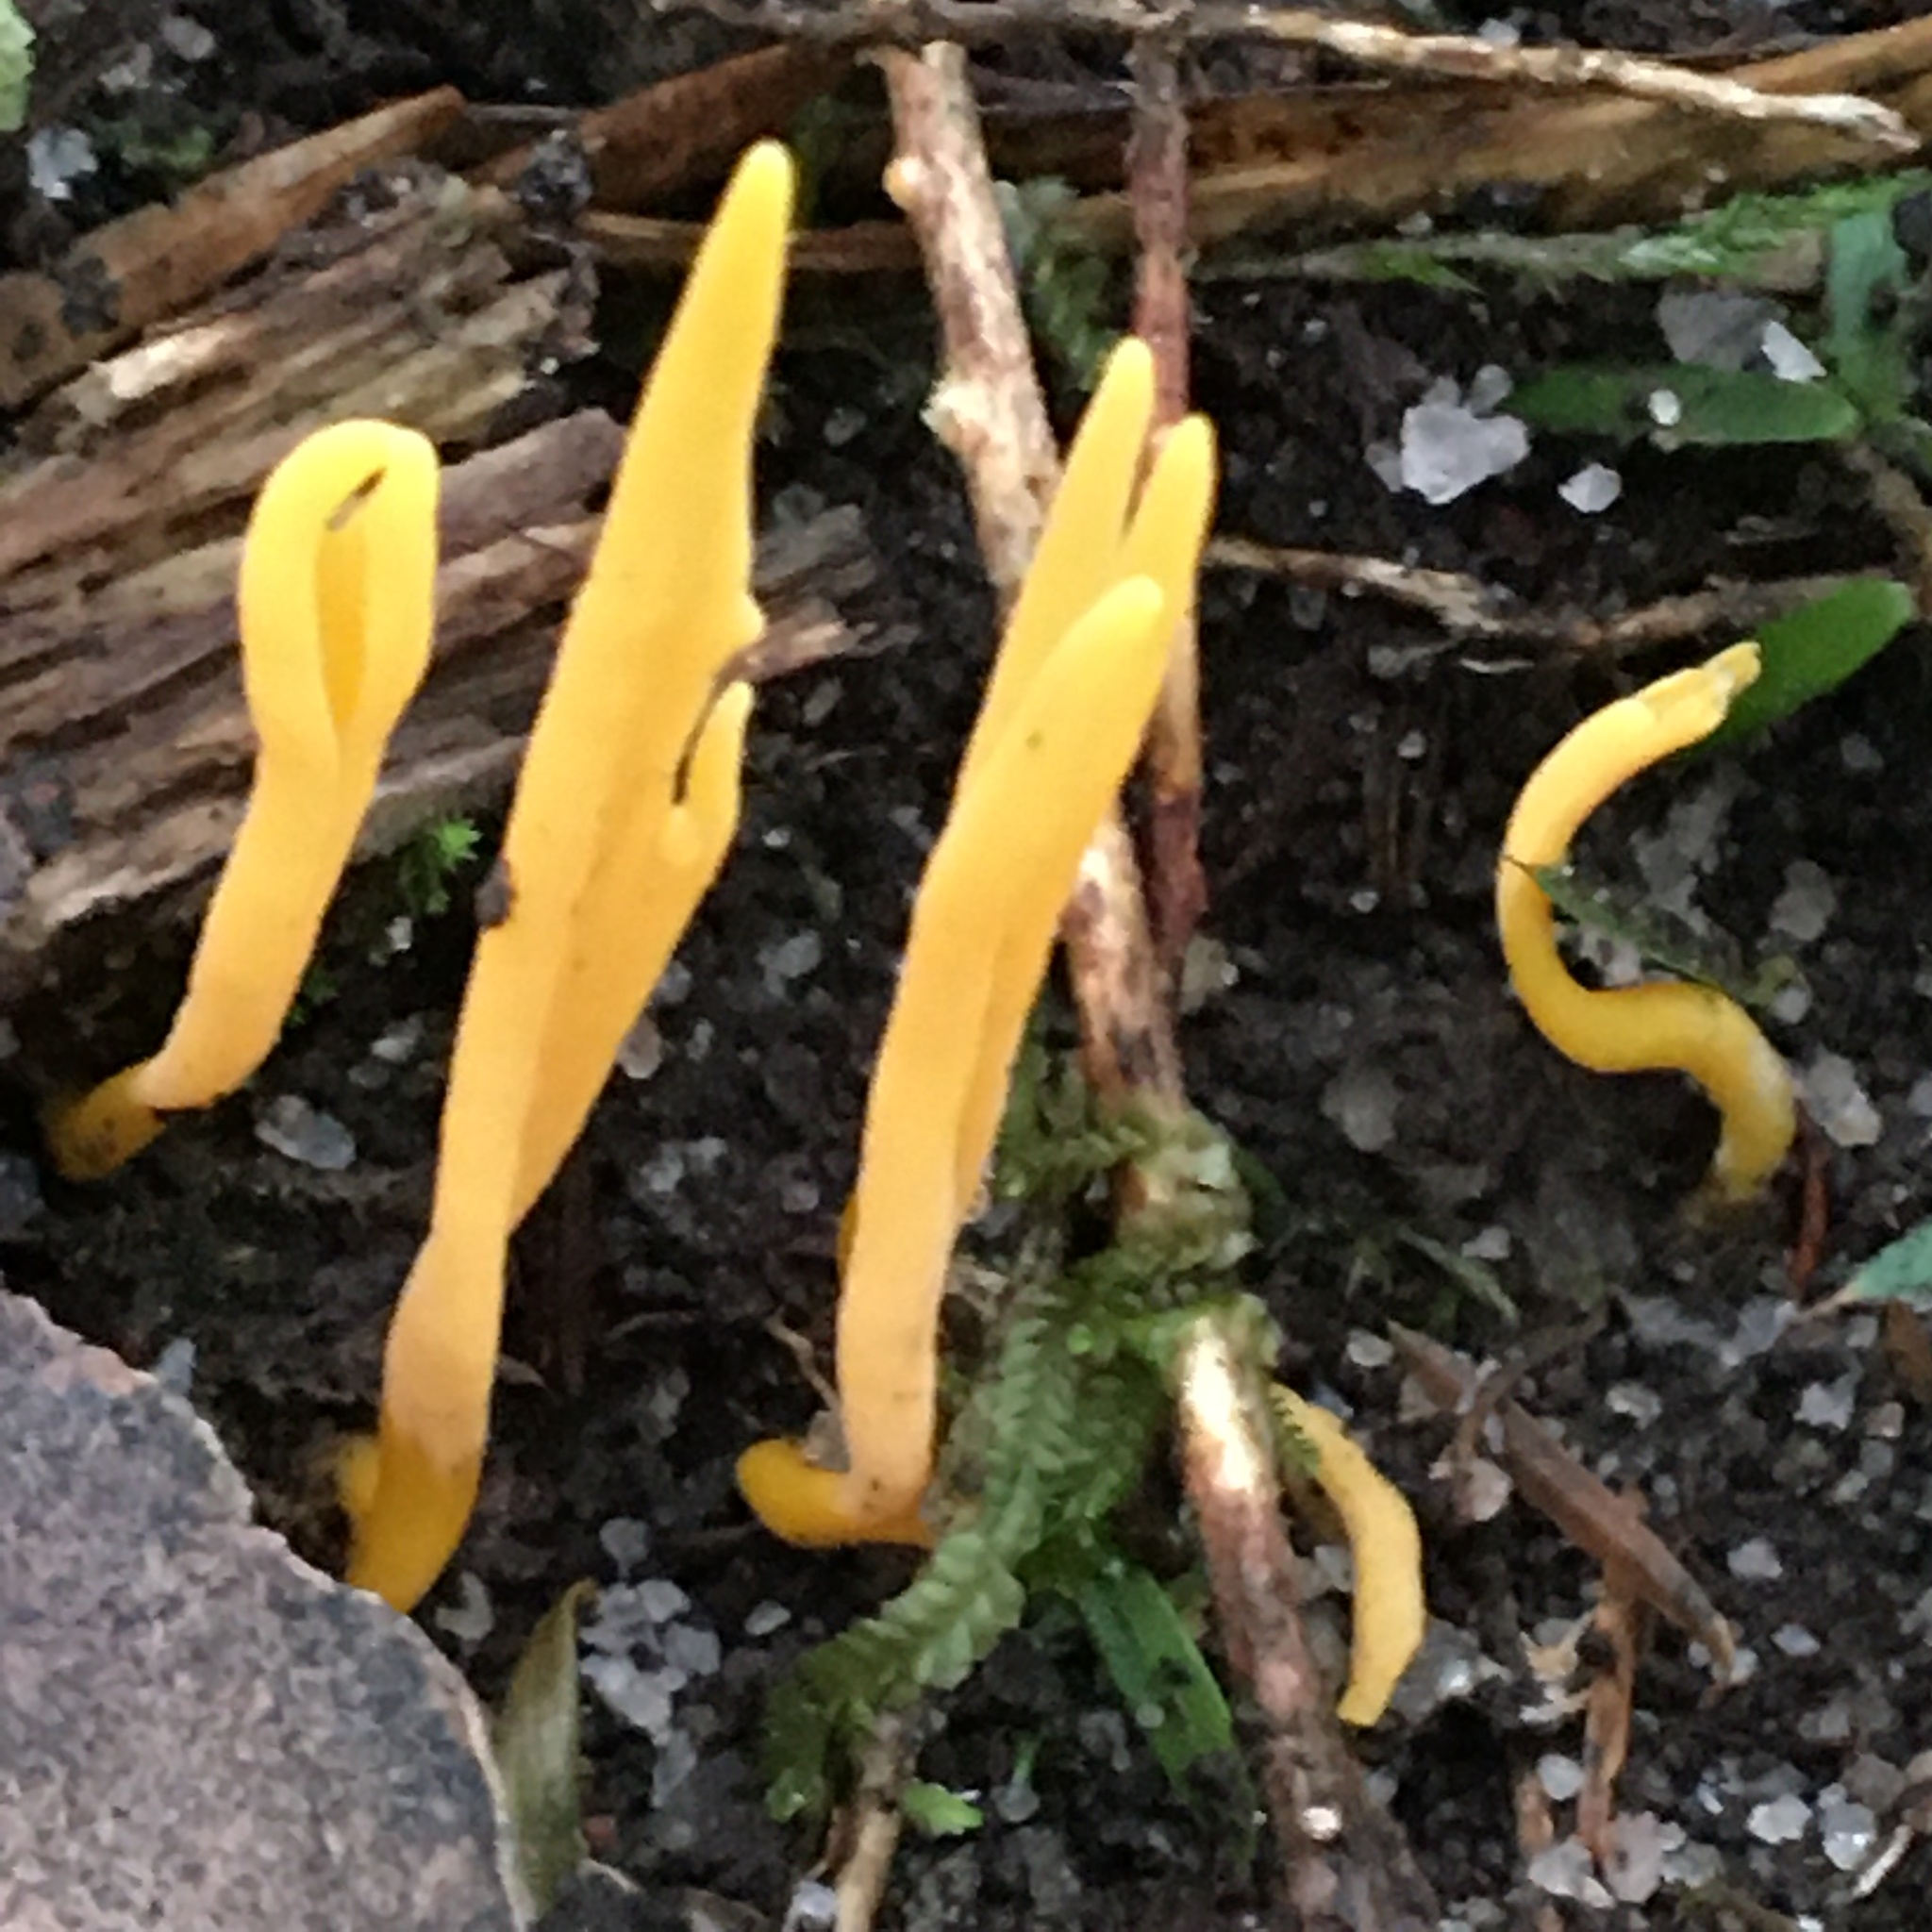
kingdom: Fungi
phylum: Basidiomycota
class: Agaricomycetes
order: Agaricales
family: Clavariaceae
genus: Clavulinopsis
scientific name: Clavulinopsis amoena
